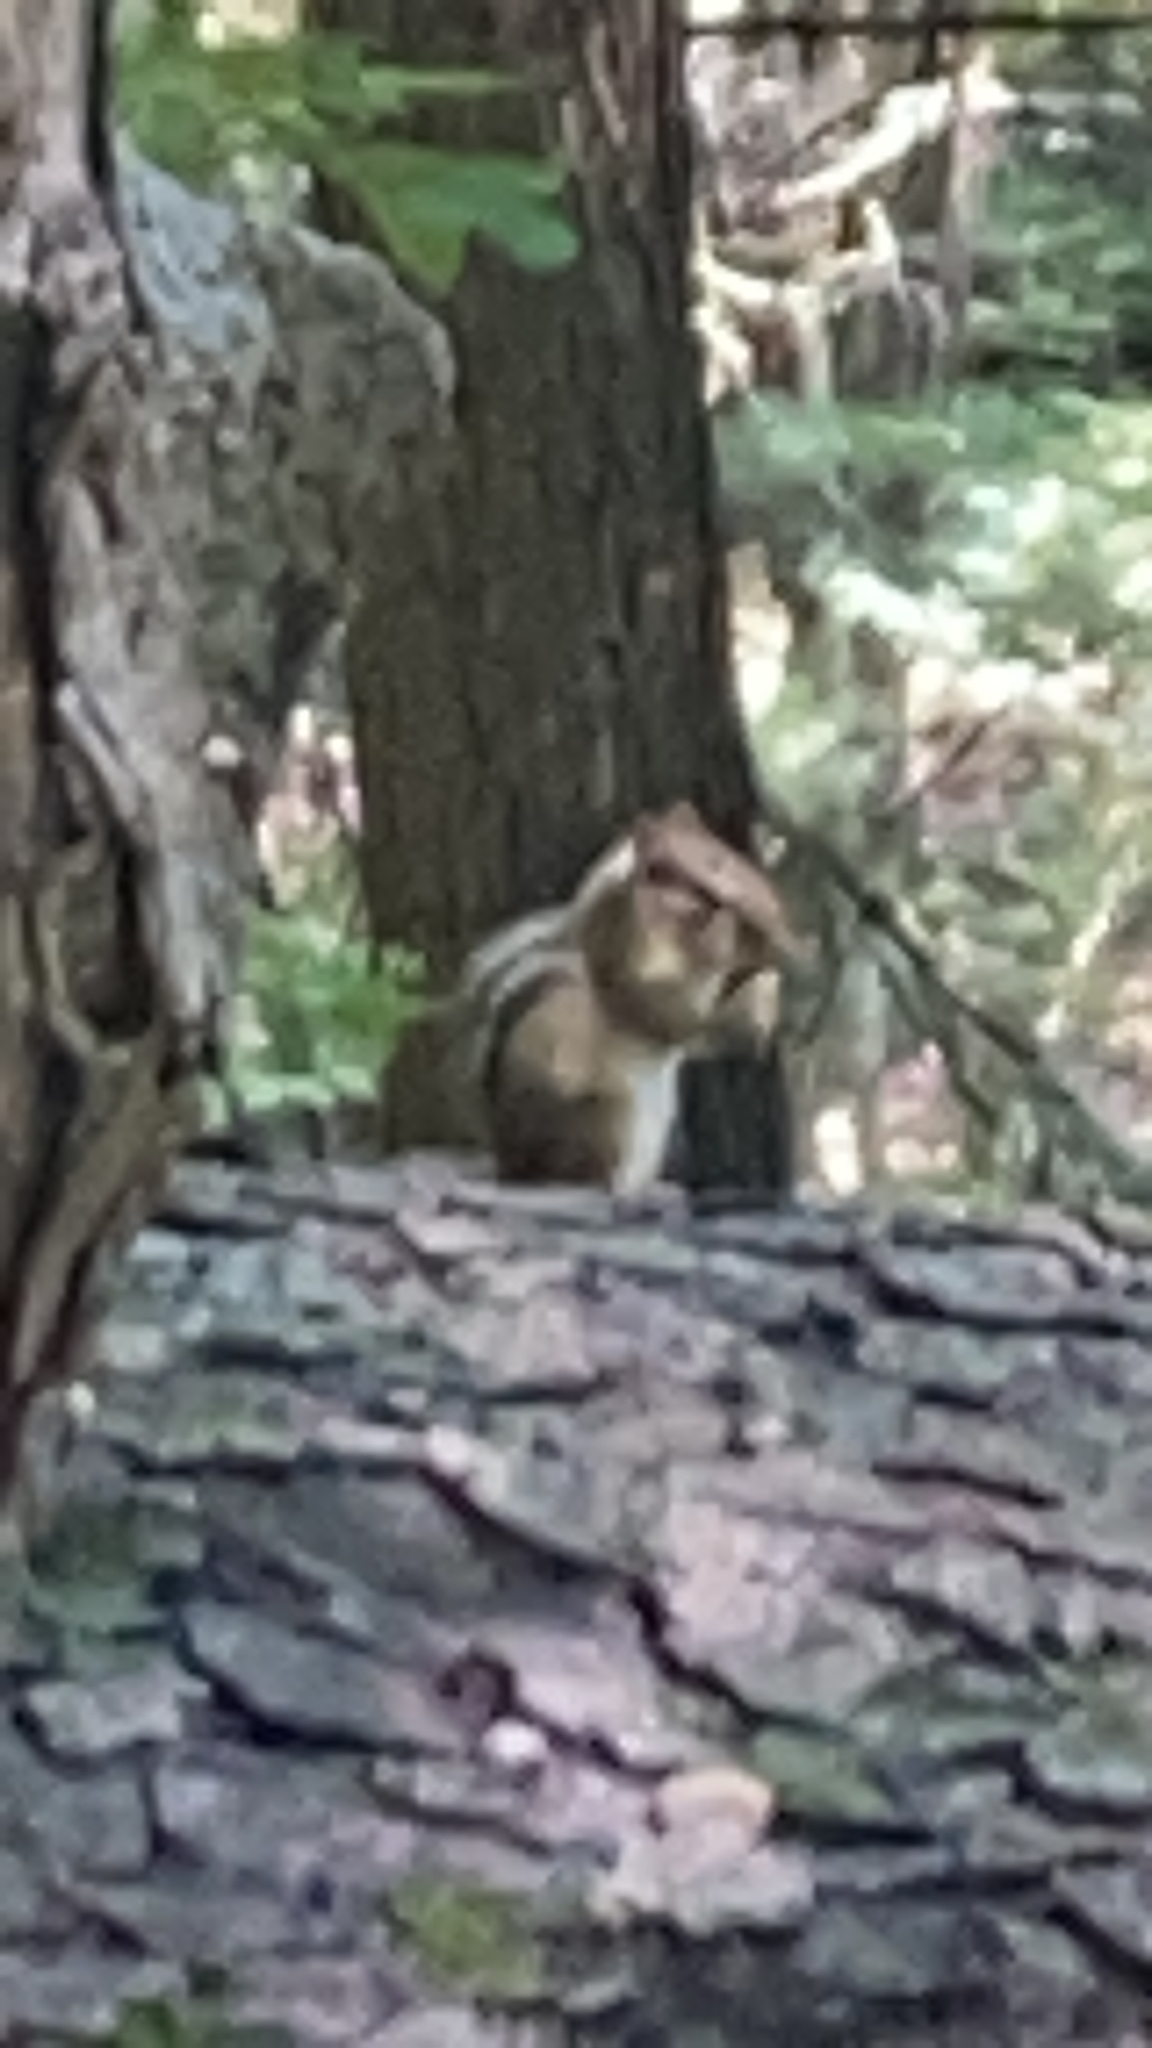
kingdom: Animalia
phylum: Chordata
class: Mammalia
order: Rodentia
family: Sciuridae
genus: Tamias
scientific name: Tamias striatus
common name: Eastern chipmunk
